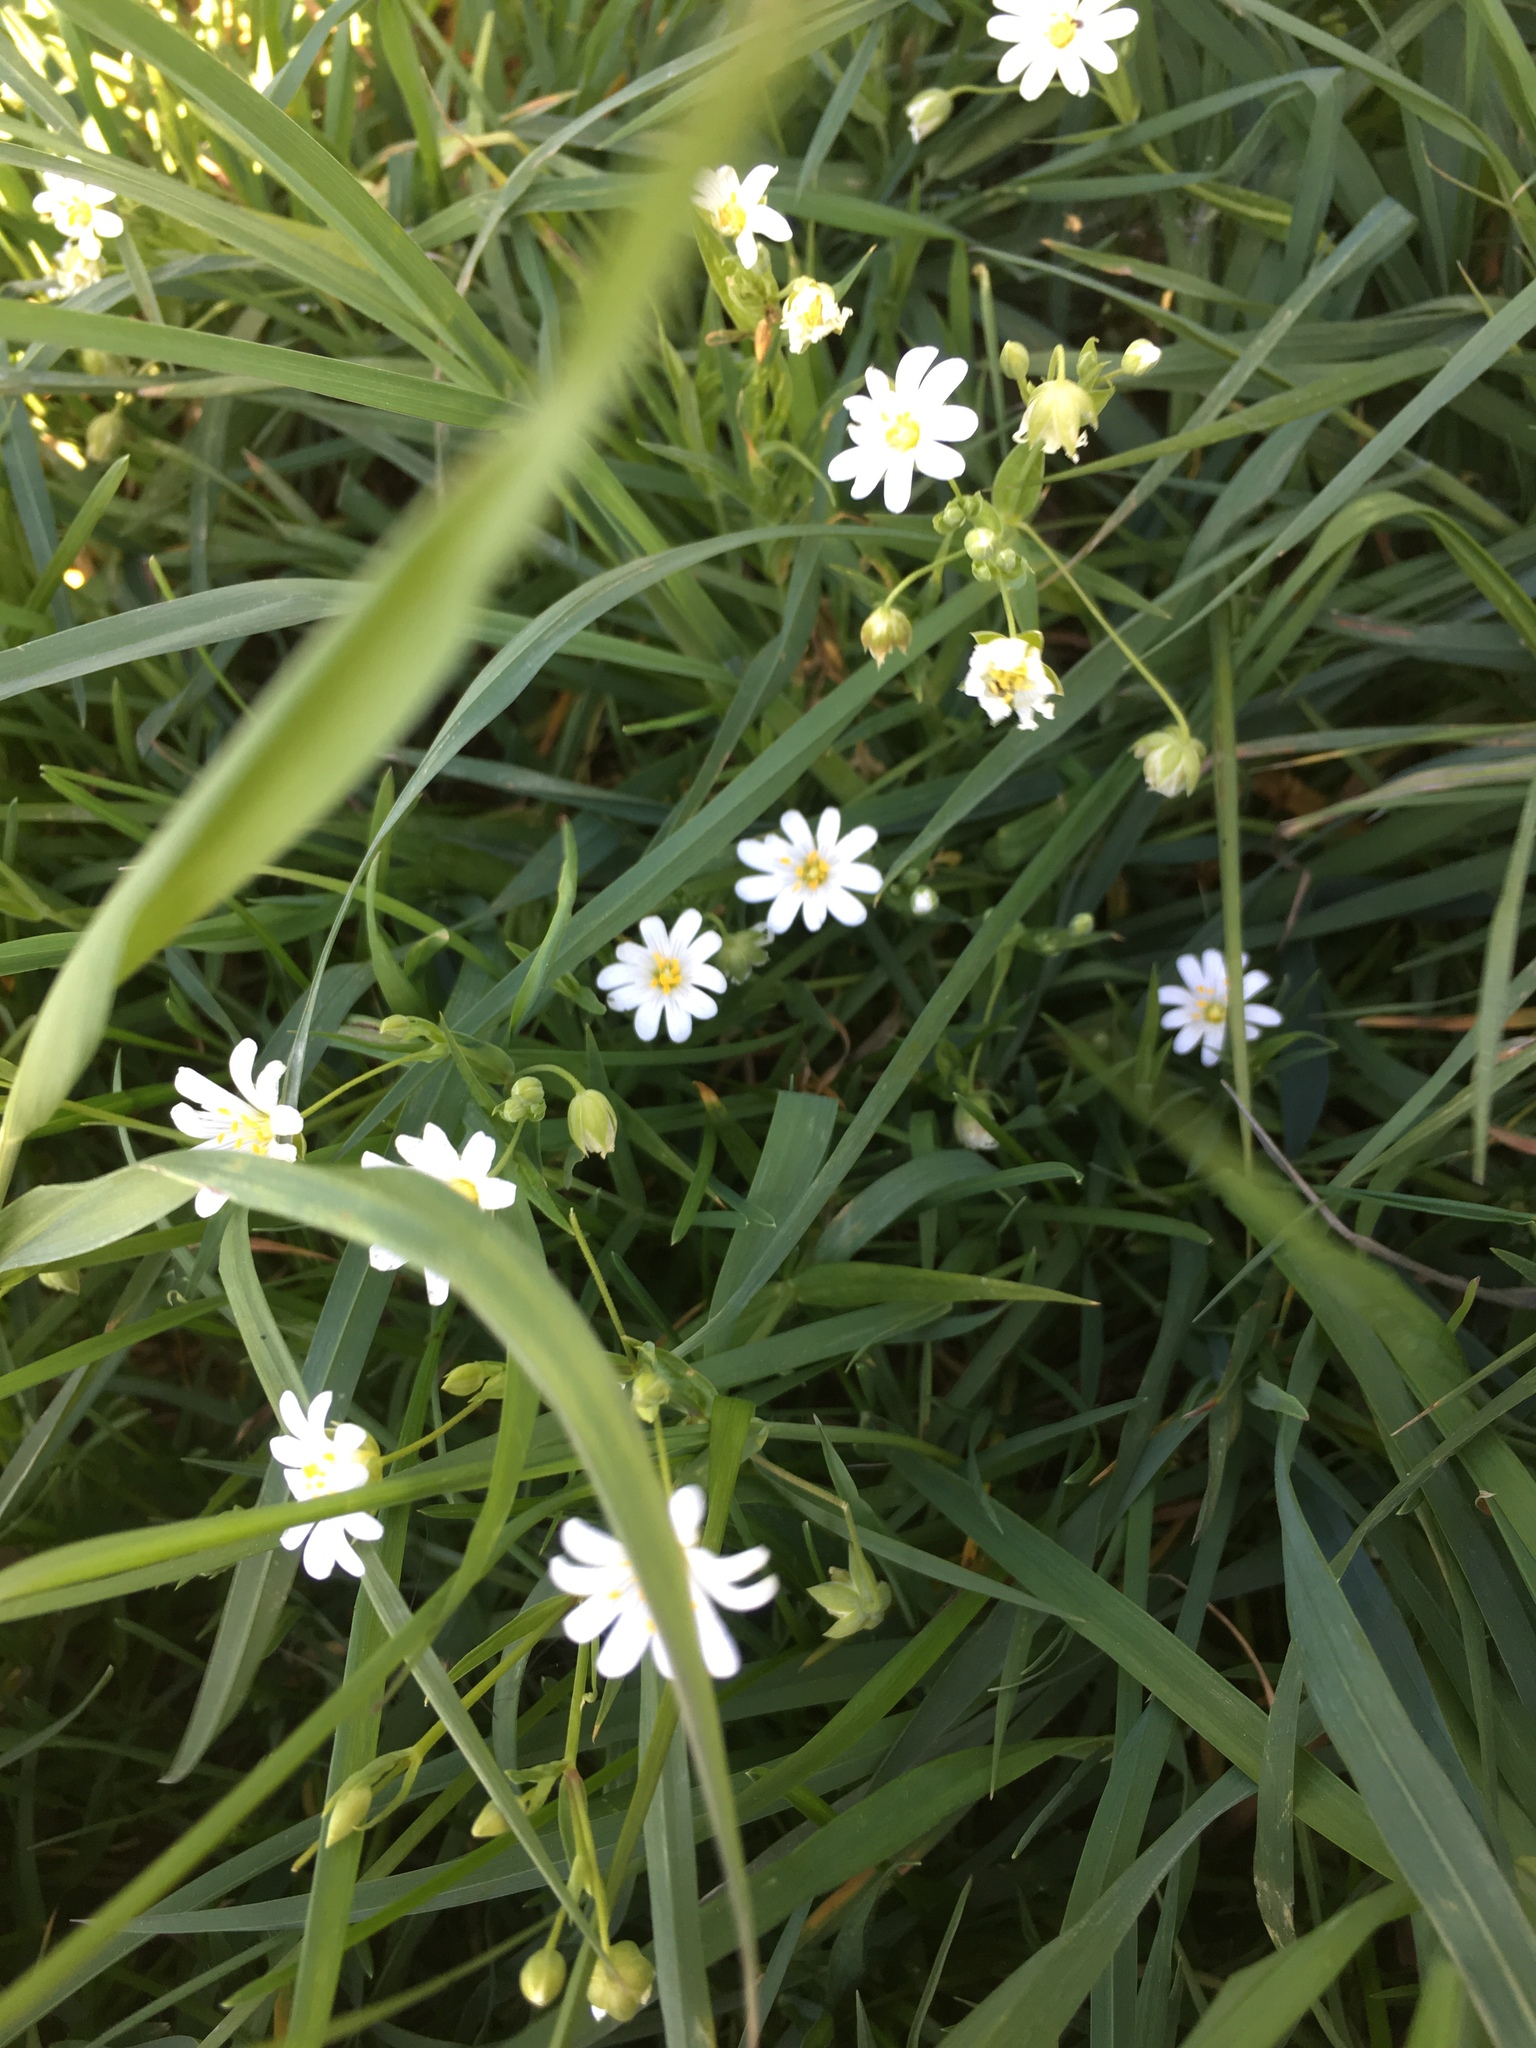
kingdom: Plantae
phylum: Tracheophyta
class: Magnoliopsida
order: Caryophyllales
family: Caryophyllaceae
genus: Rabelera
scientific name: Rabelera holostea
